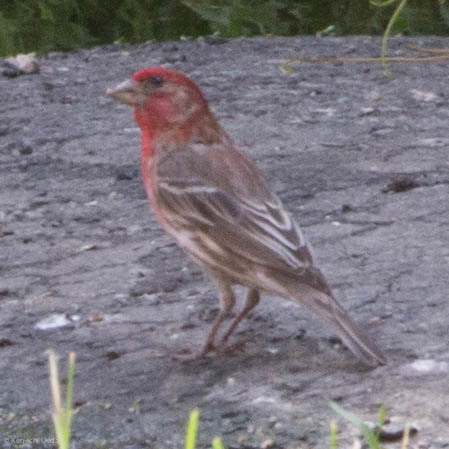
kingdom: Animalia
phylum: Chordata
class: Aves
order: Passeriformes
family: Fringillidae
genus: Haemorhous
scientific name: Haemorhous mexicanus
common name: House finch
